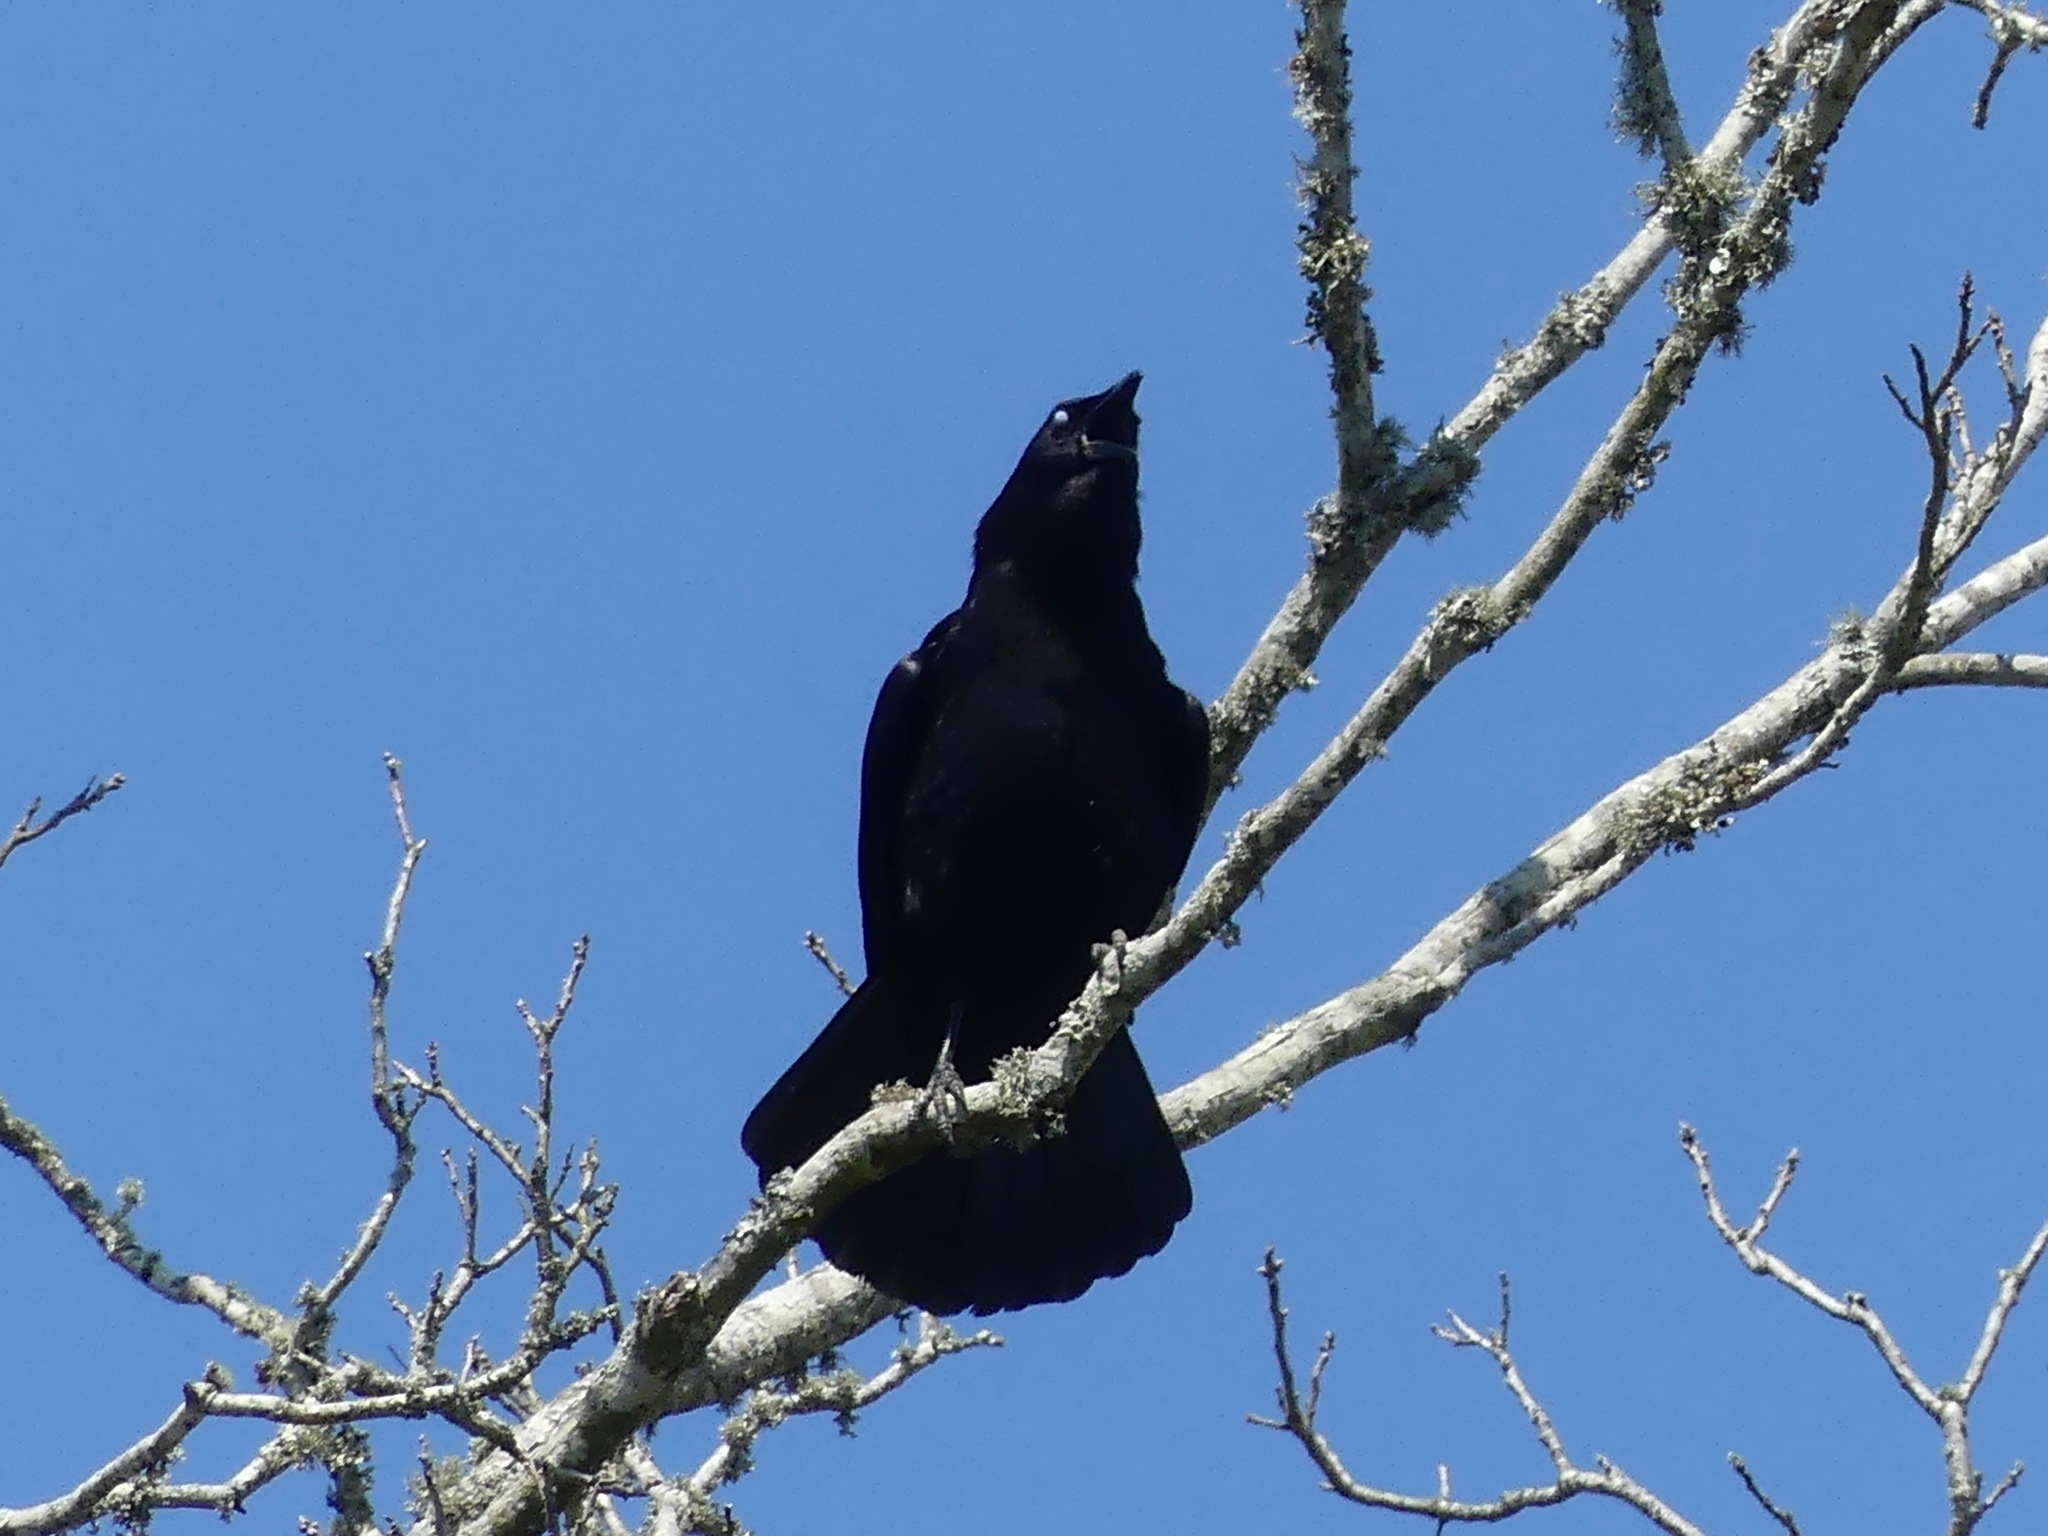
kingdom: Animalia
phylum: Chordata
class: Aves
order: Passeriformes
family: Corvidae
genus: Corvus
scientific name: Corvus brachyrhynchos
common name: American crow
